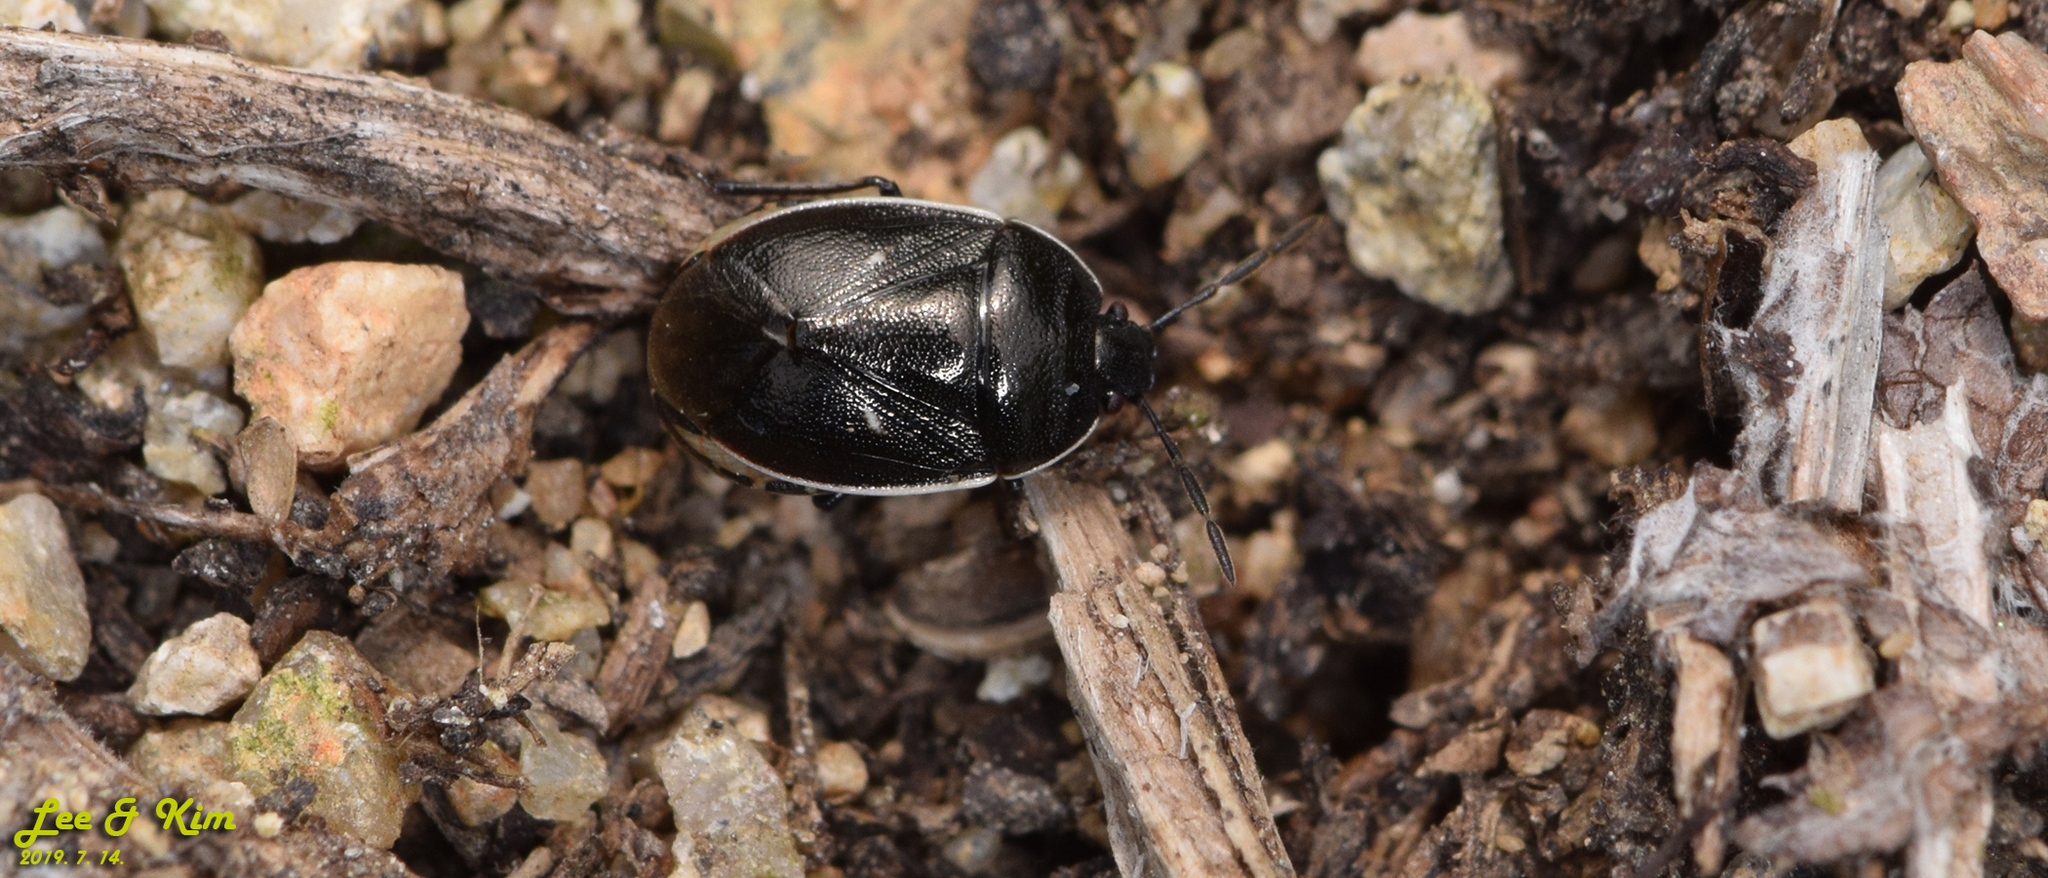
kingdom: Animalia
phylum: Arthropoda
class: Insecta
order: Hemiptera
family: Cydnidae
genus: Adomerus
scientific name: Adomerus
